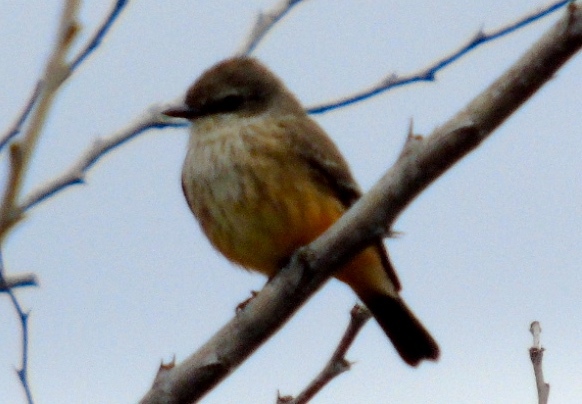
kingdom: Animalia
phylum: Chordata
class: Aves
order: Passeriformes
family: Tyrannidae
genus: Pyrocephalus
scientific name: Pyrocephalus rubinus
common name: Vermilion flycatcher
